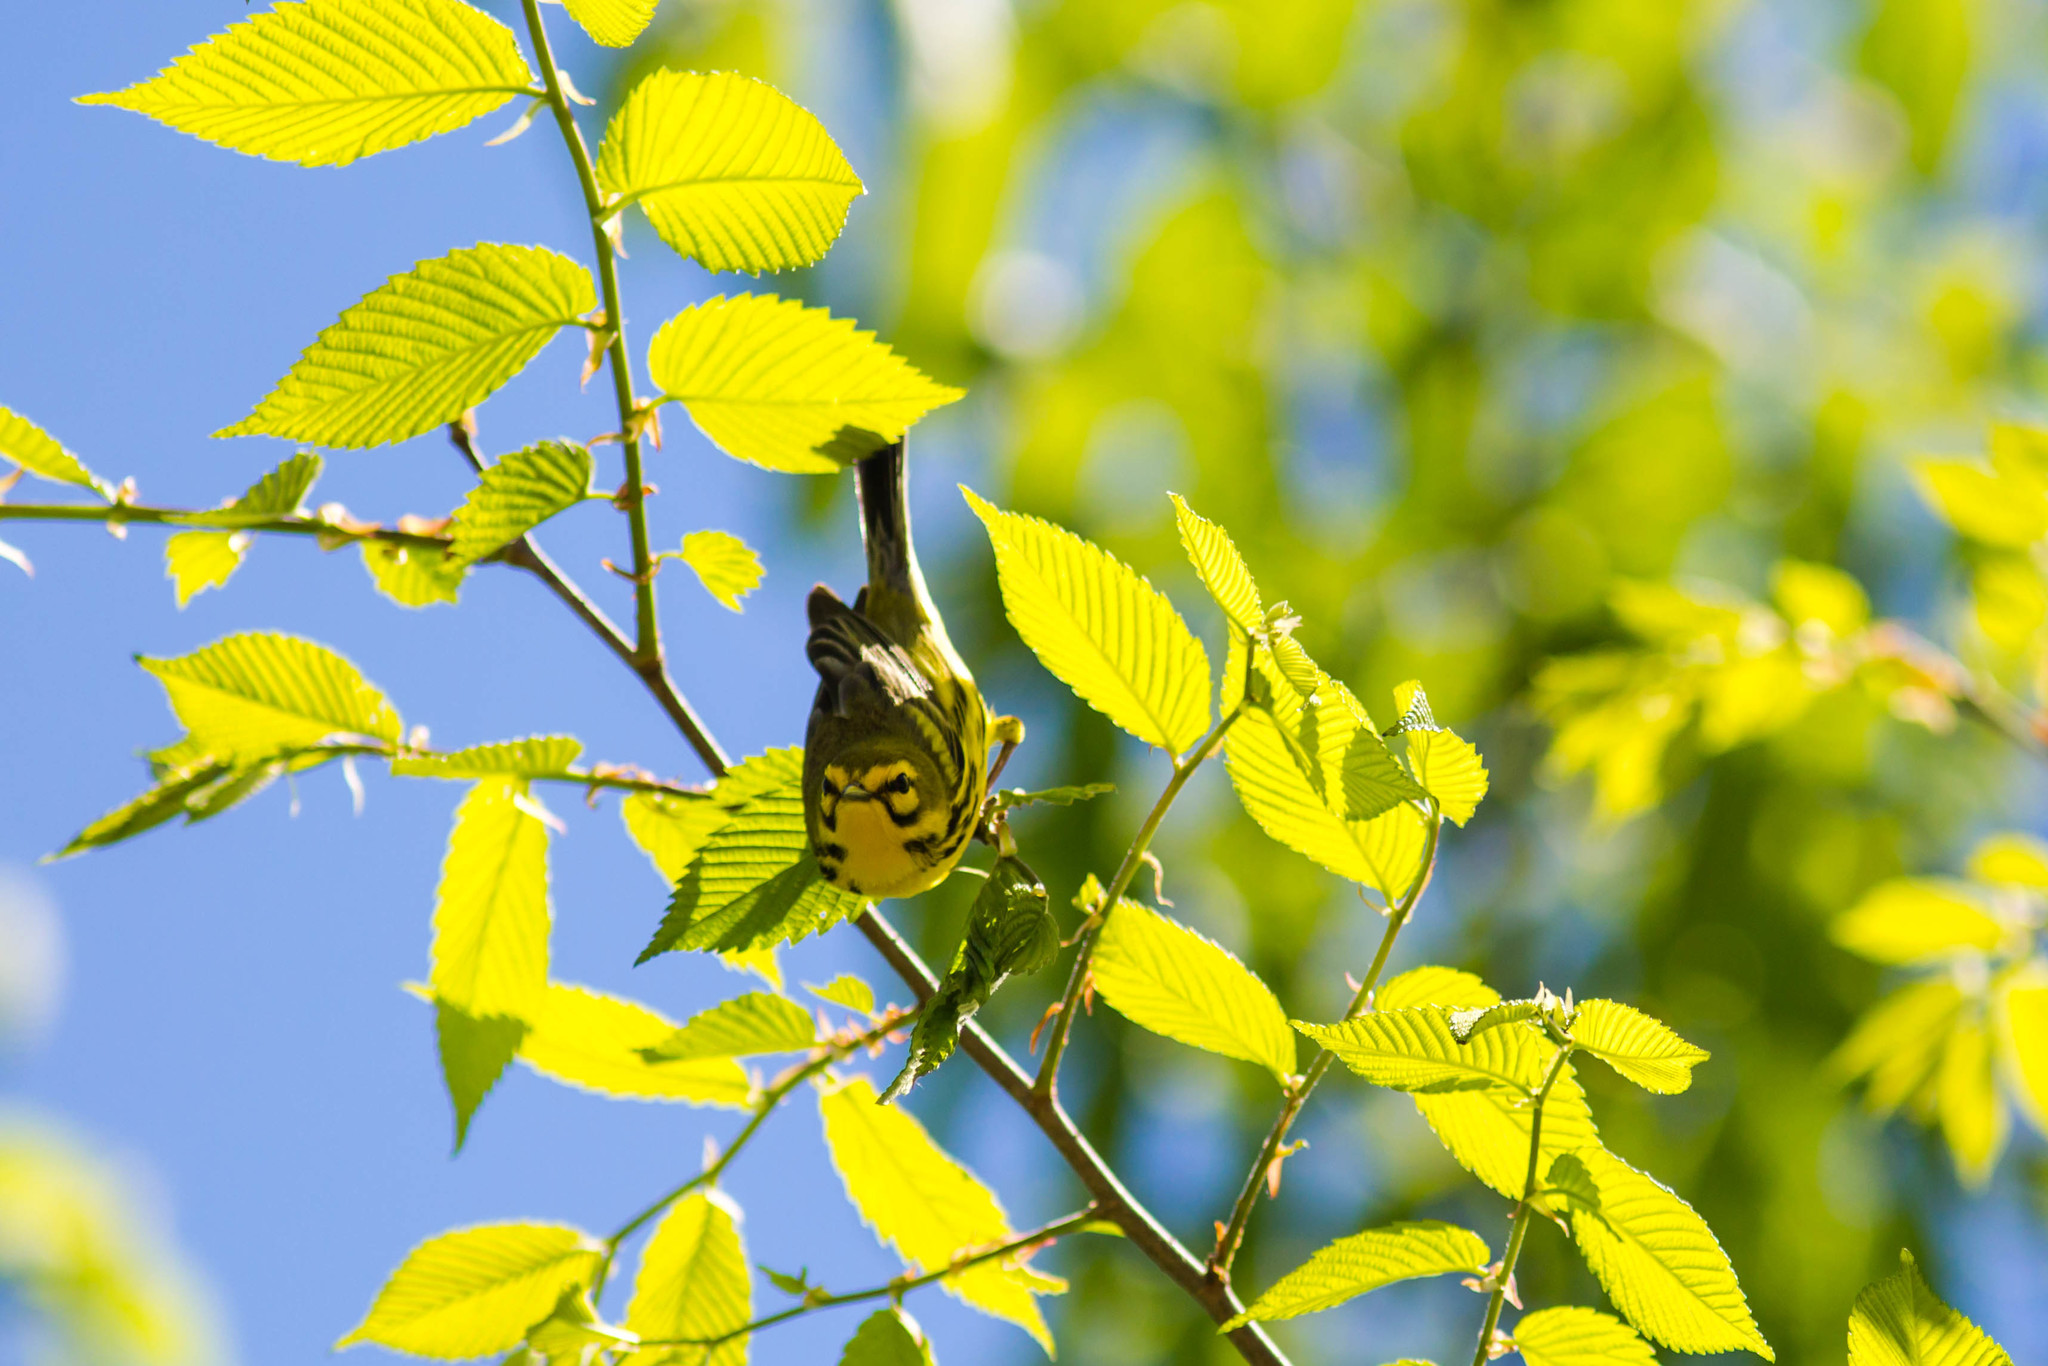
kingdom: Animalia
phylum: Chordata
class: Aves
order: Passeriformes
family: Parulidae
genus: Setophaga
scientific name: Setophaga discolor
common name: Prairie warbler
